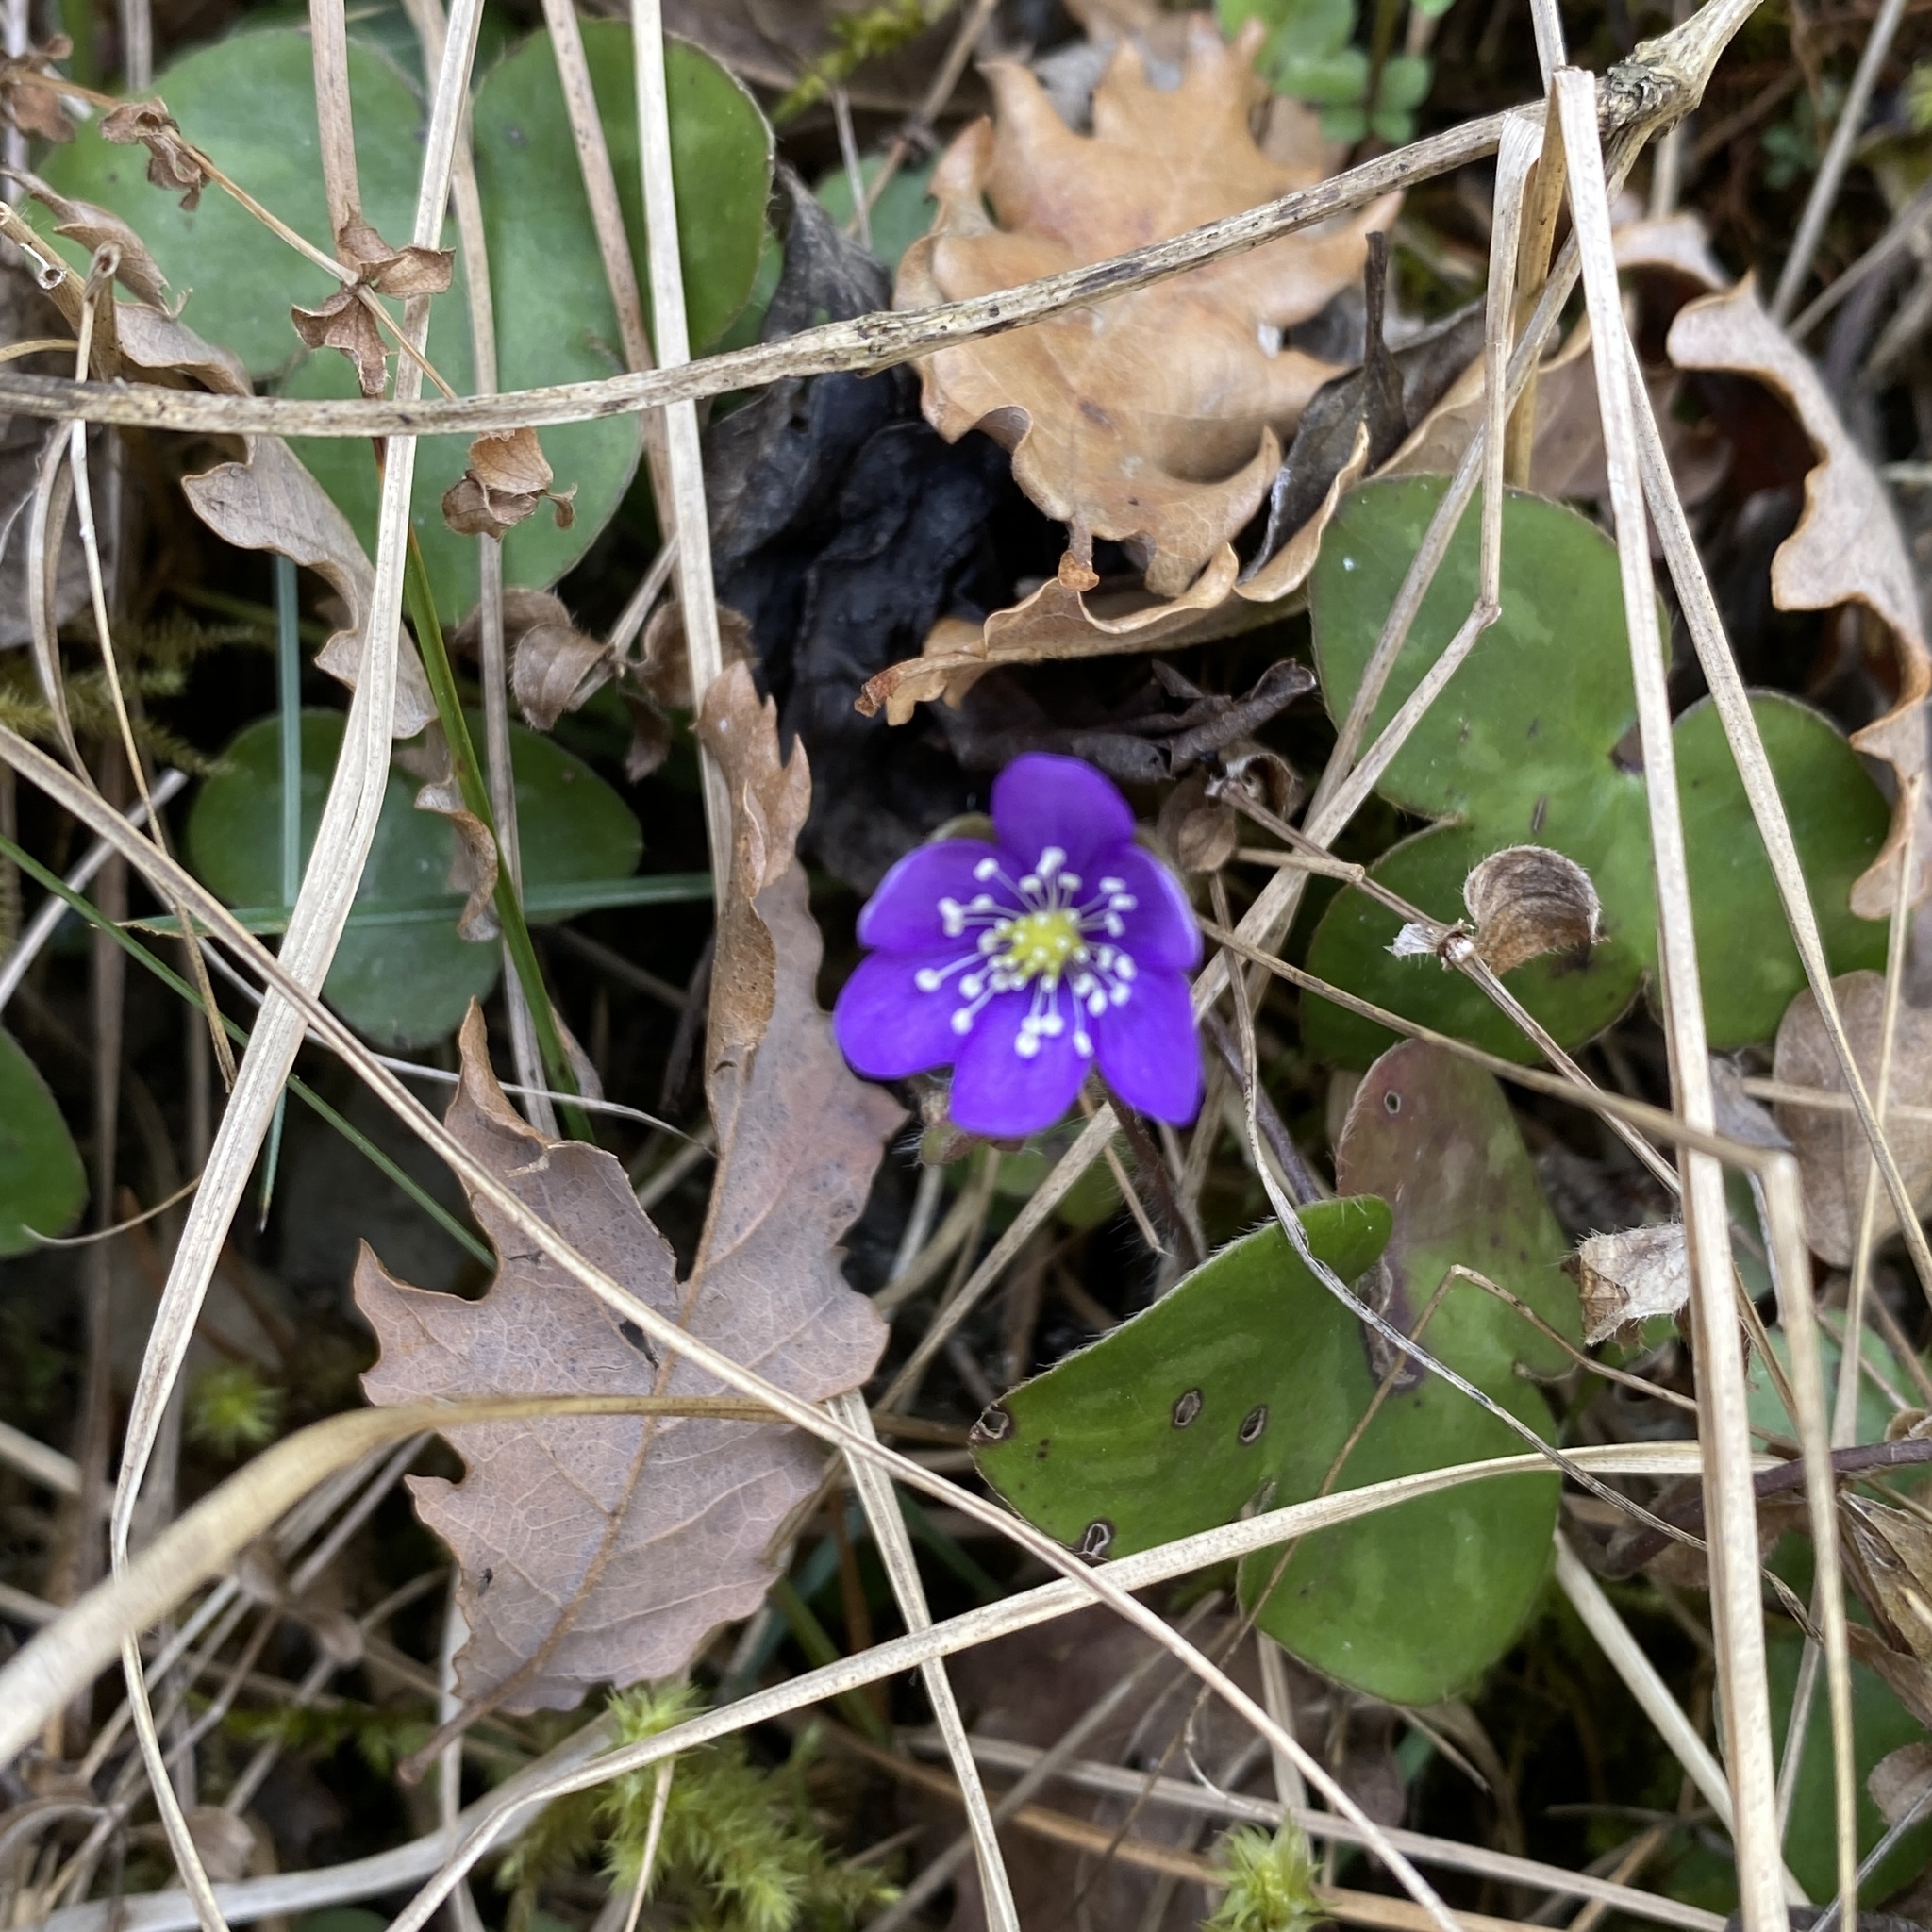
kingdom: Plantae
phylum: Tracheophyta
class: Magnoliopsida
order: Ranunculales
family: Ranunculaceae
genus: Hepatica
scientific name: Hepatica nobilis
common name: Liverleaf
